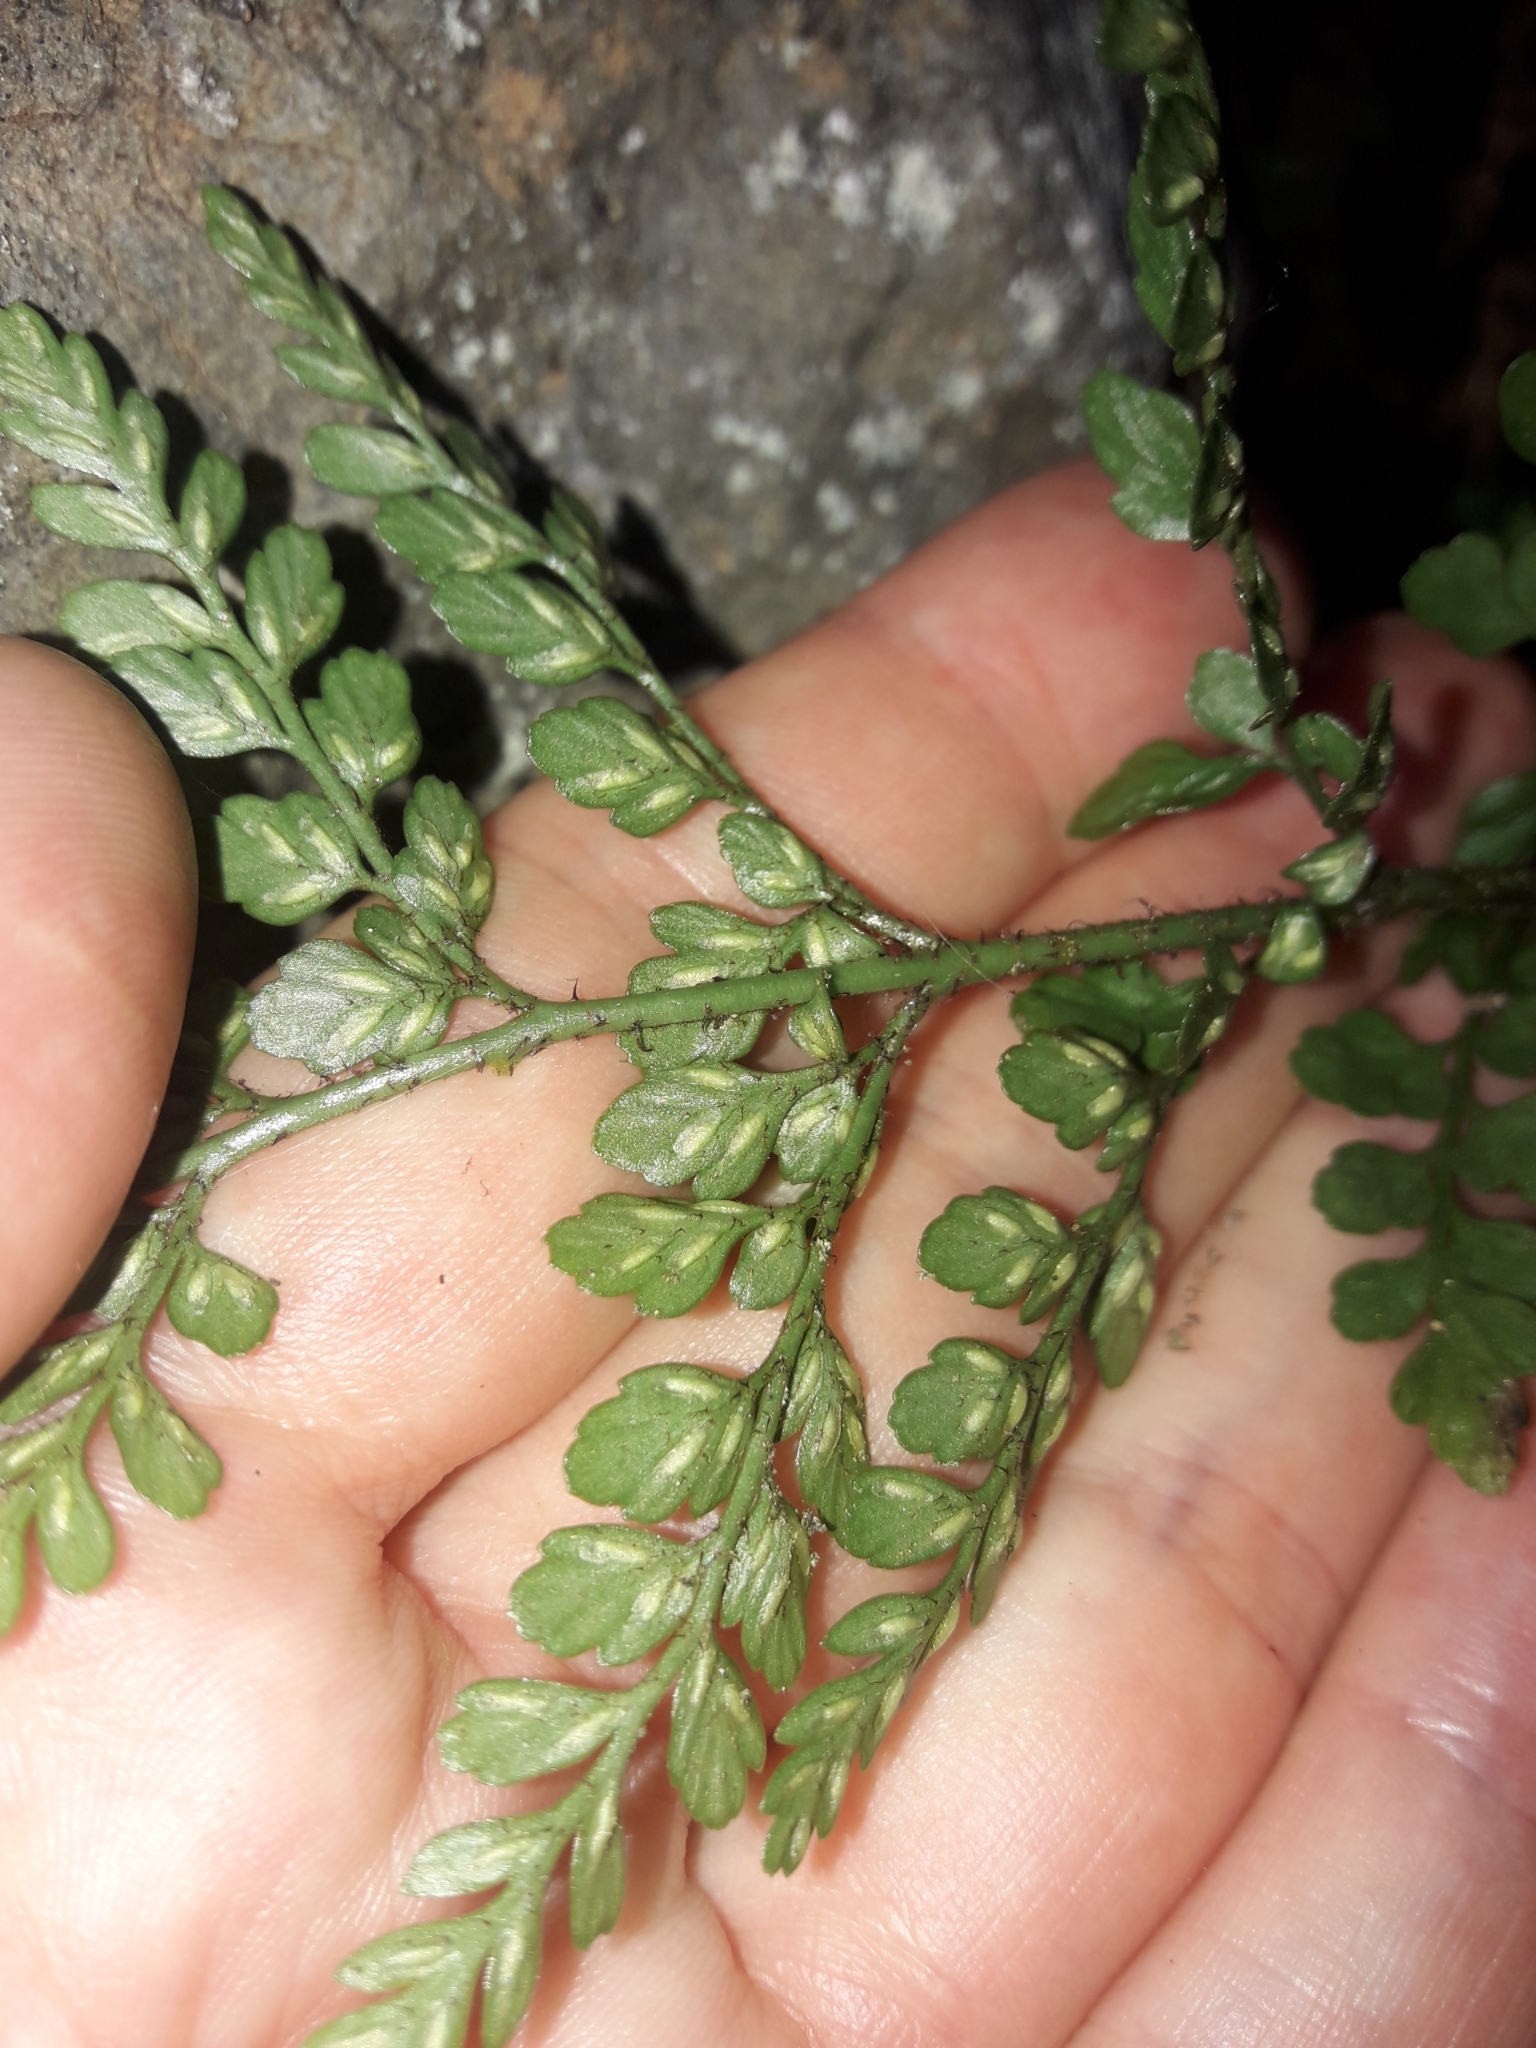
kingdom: Plantae
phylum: Tracheophyta
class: Polypodiopsida
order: Polypodiales
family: Aspleniaceae
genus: Asplenium
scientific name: Asplenium hookerianum
